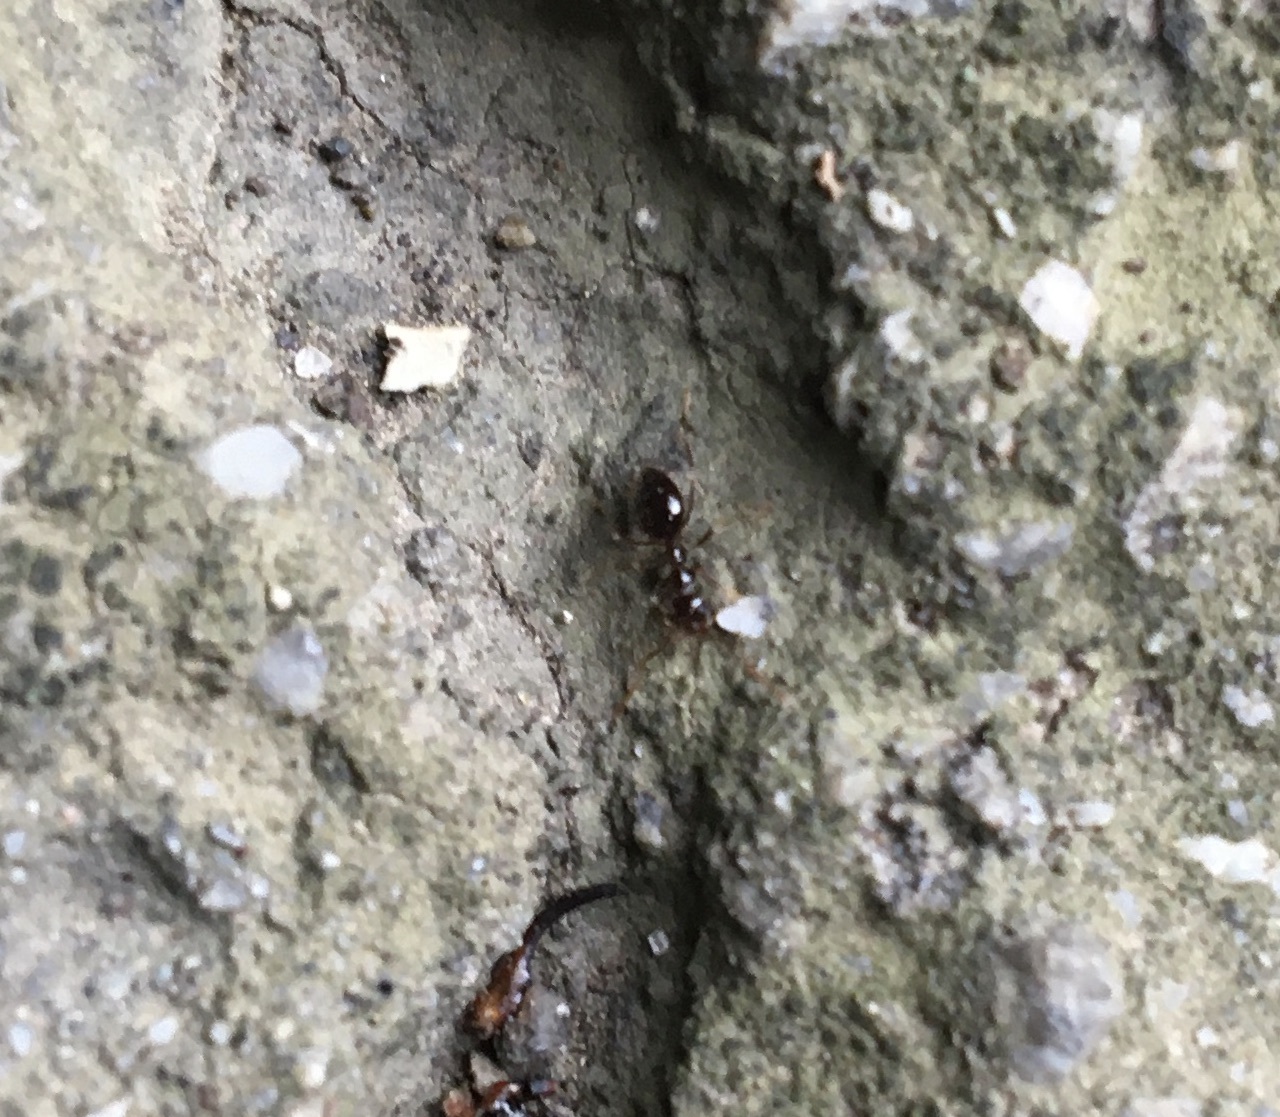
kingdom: Animalia
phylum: Arthropoda
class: Insecta
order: Hymenoptera
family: Formicidae
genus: Prenolepis
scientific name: Prenolepis imparis
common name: Small honey ant
